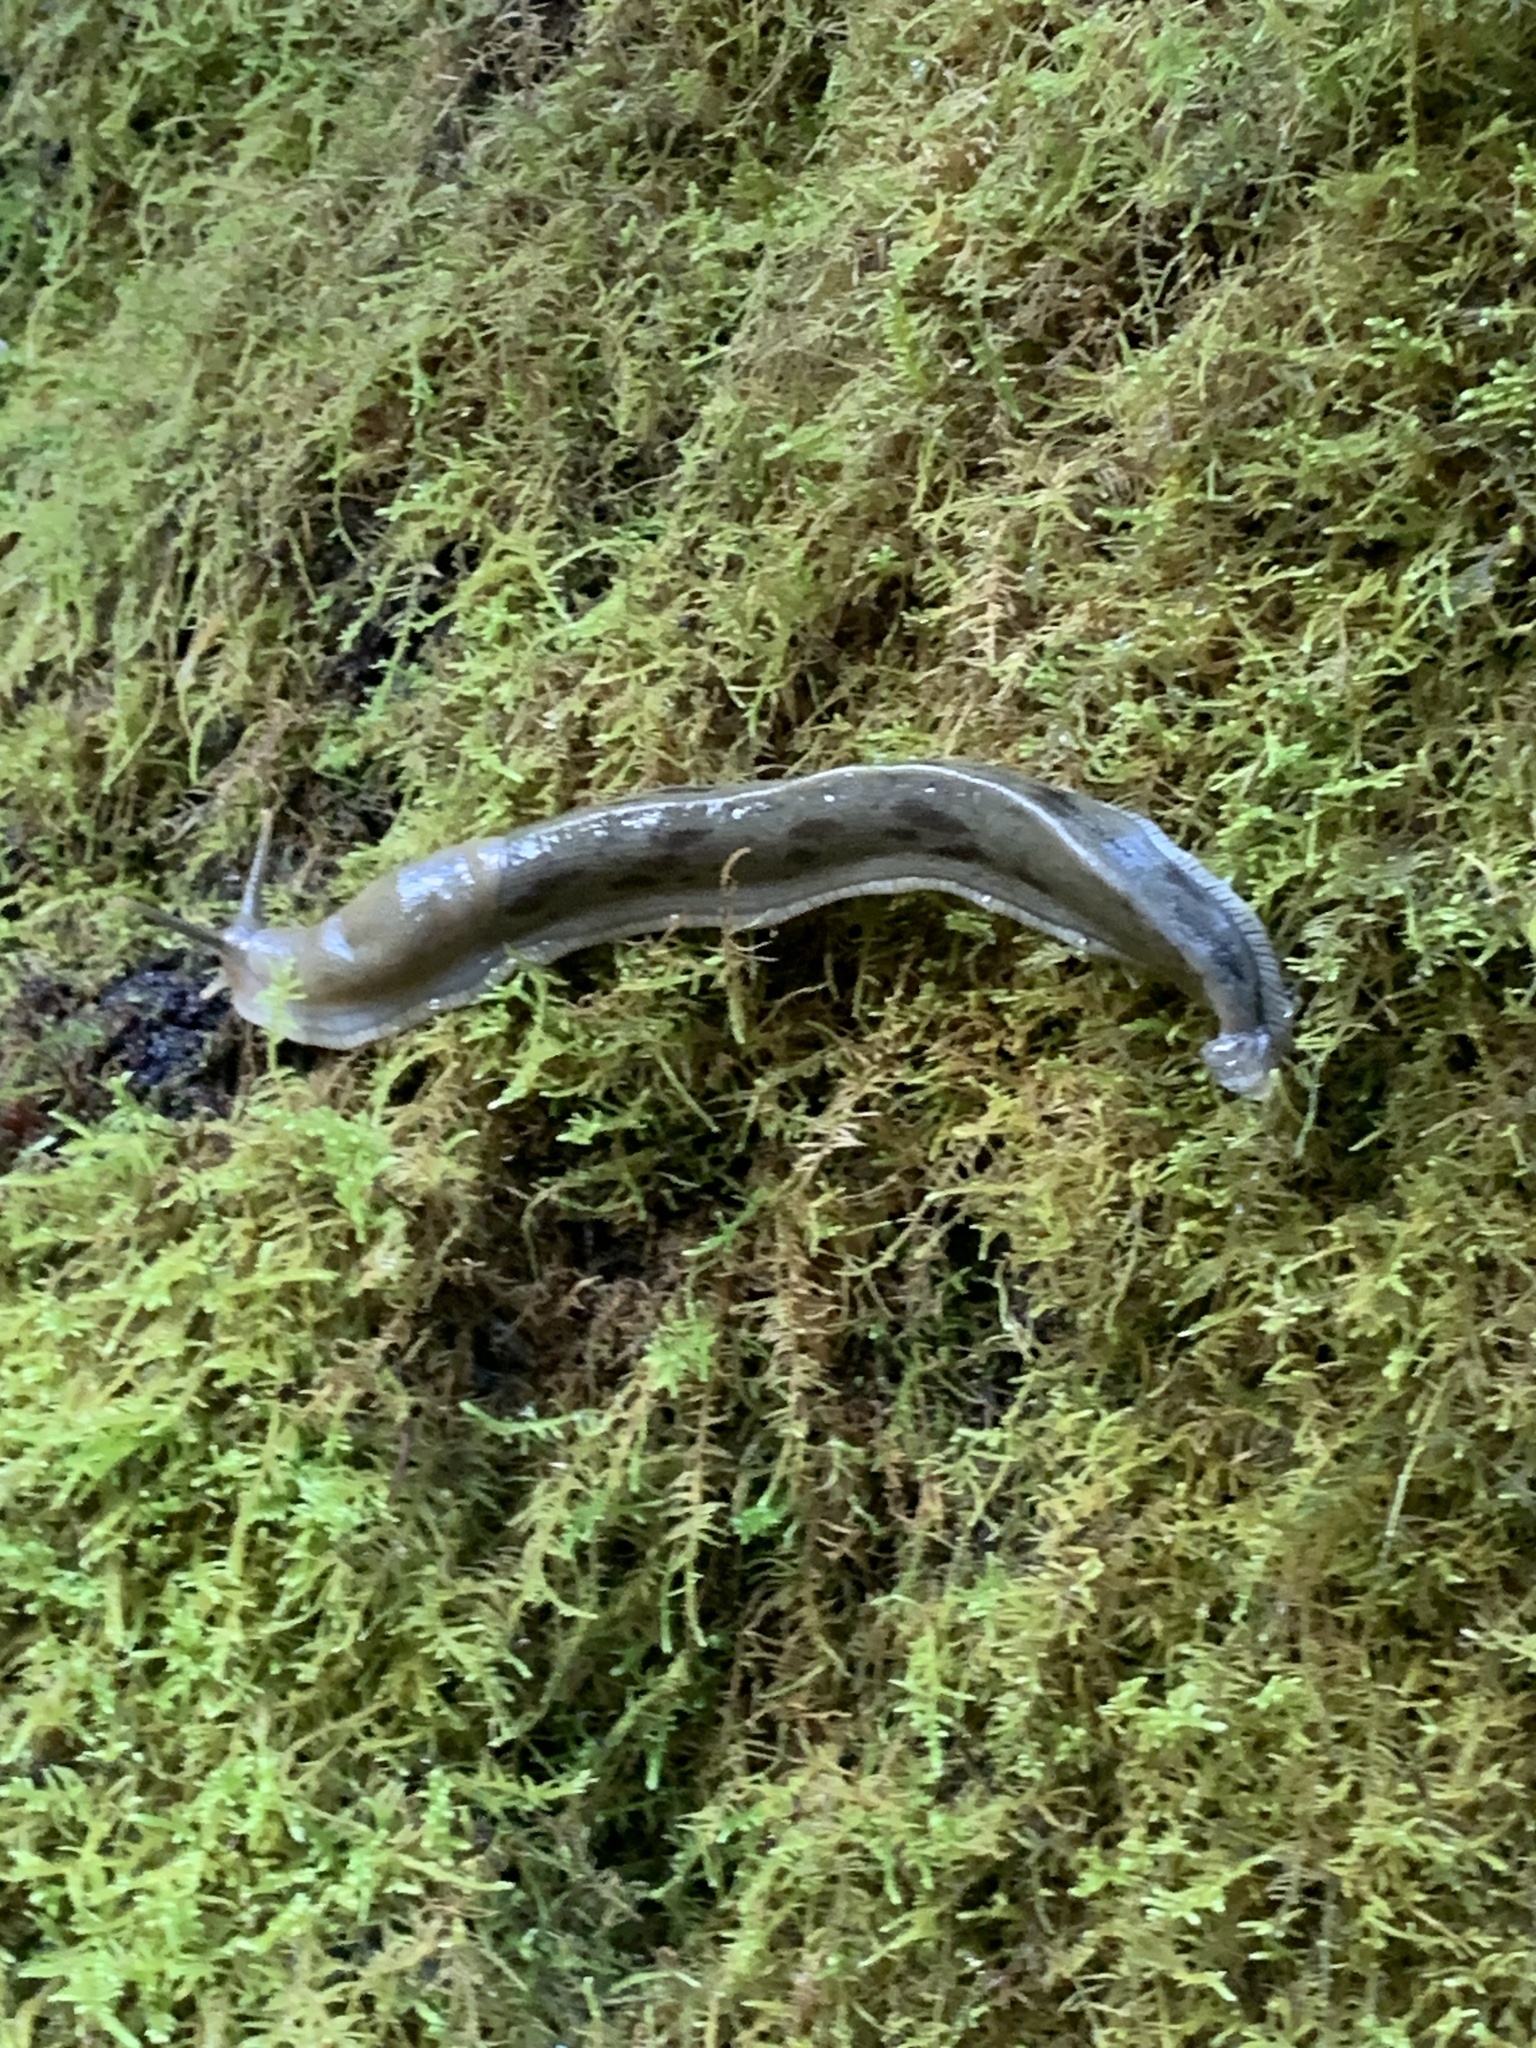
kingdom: Animalia
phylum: Mollusca
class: Gastropoda
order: Stylommatophora
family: Ariolimacidae
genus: Ariolimax
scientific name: Ariolimax columbianus
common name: Pacific banana slug
